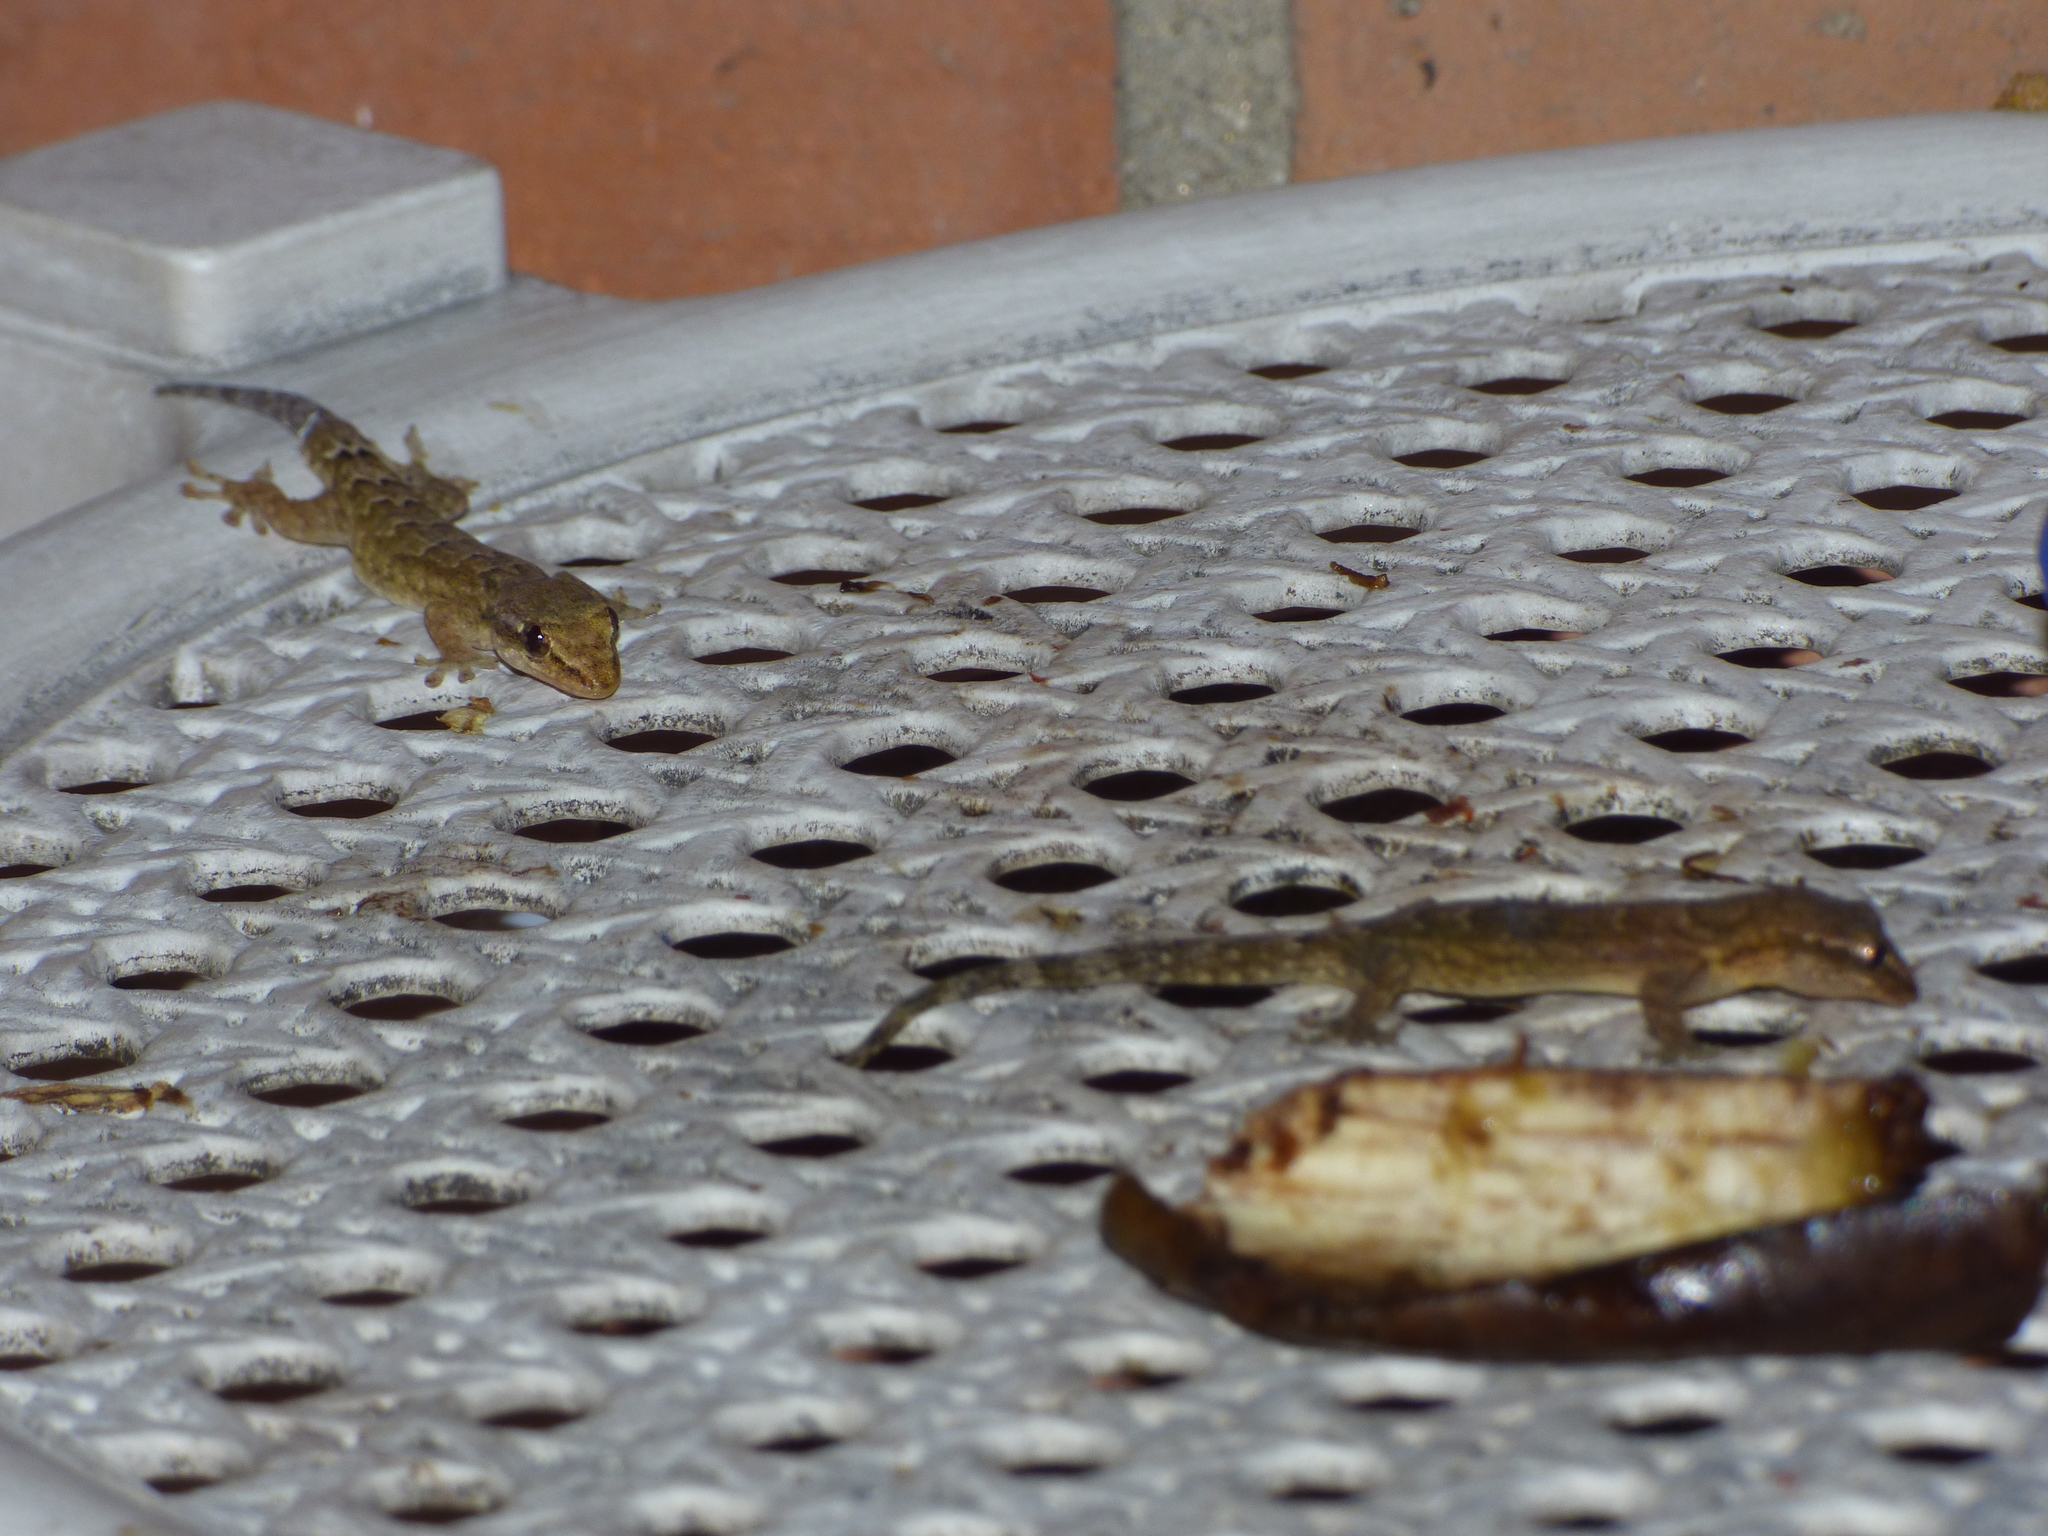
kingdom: Animalia
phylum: Chordata
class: Squamata
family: Gekkonidae
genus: Lepidodactylus
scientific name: Lepidodactylus lugubris
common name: Mourning gecko
